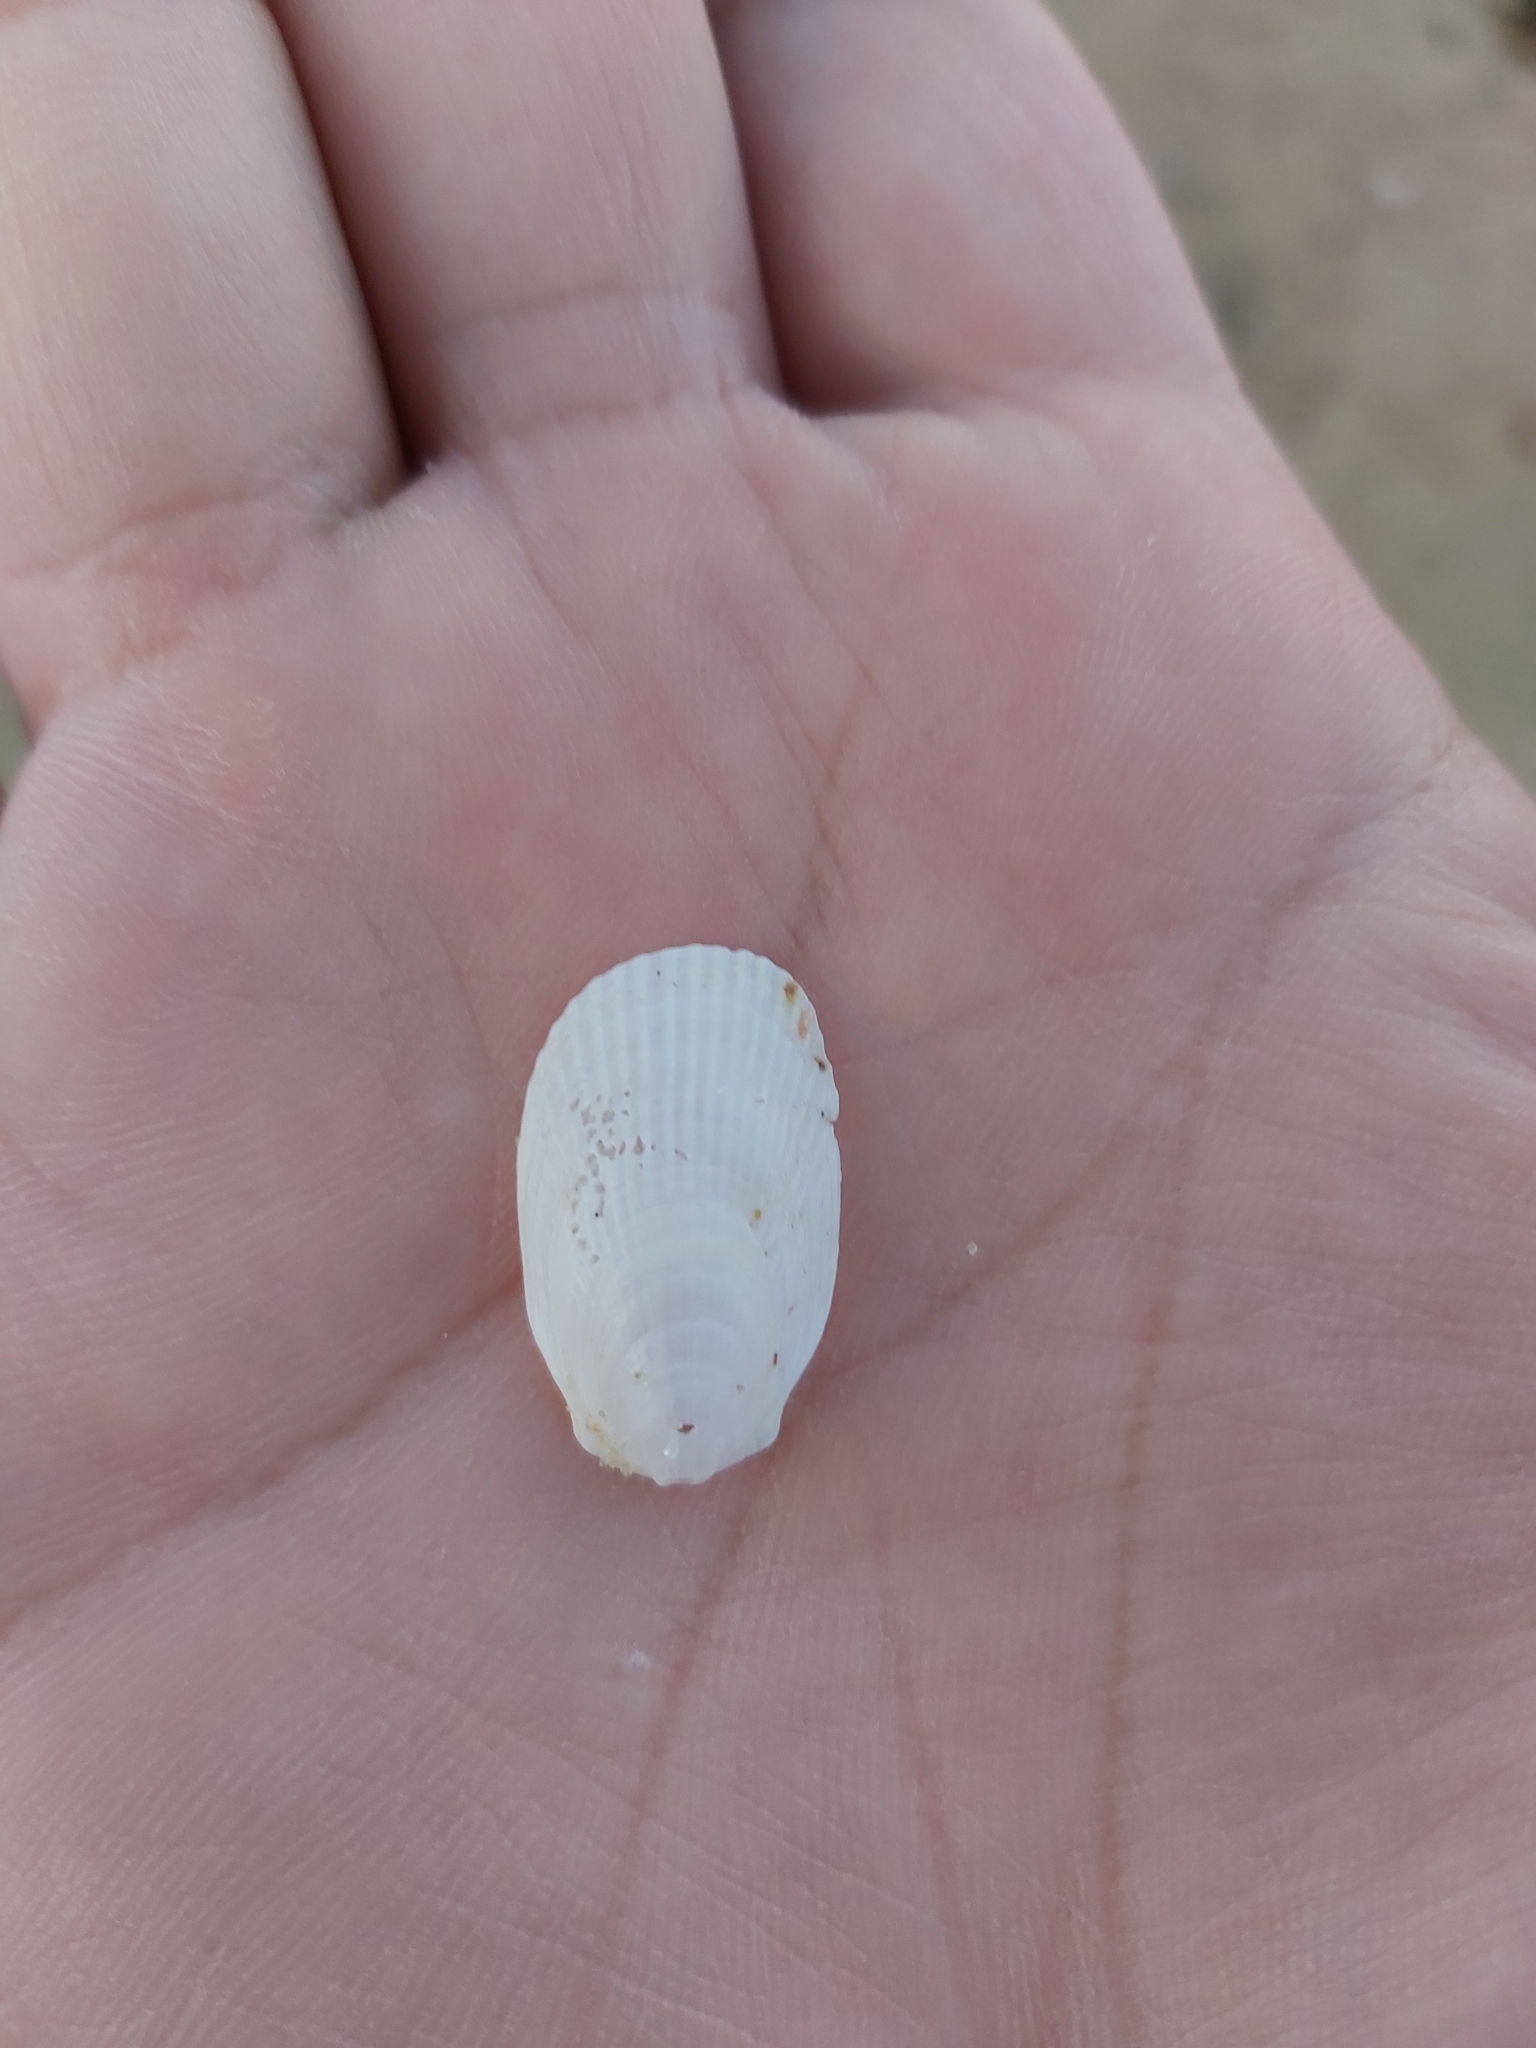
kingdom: Animalia
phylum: Mollusca
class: Bivalvia
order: Limida
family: Limidae
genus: Limatula
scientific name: Limatula strangei
